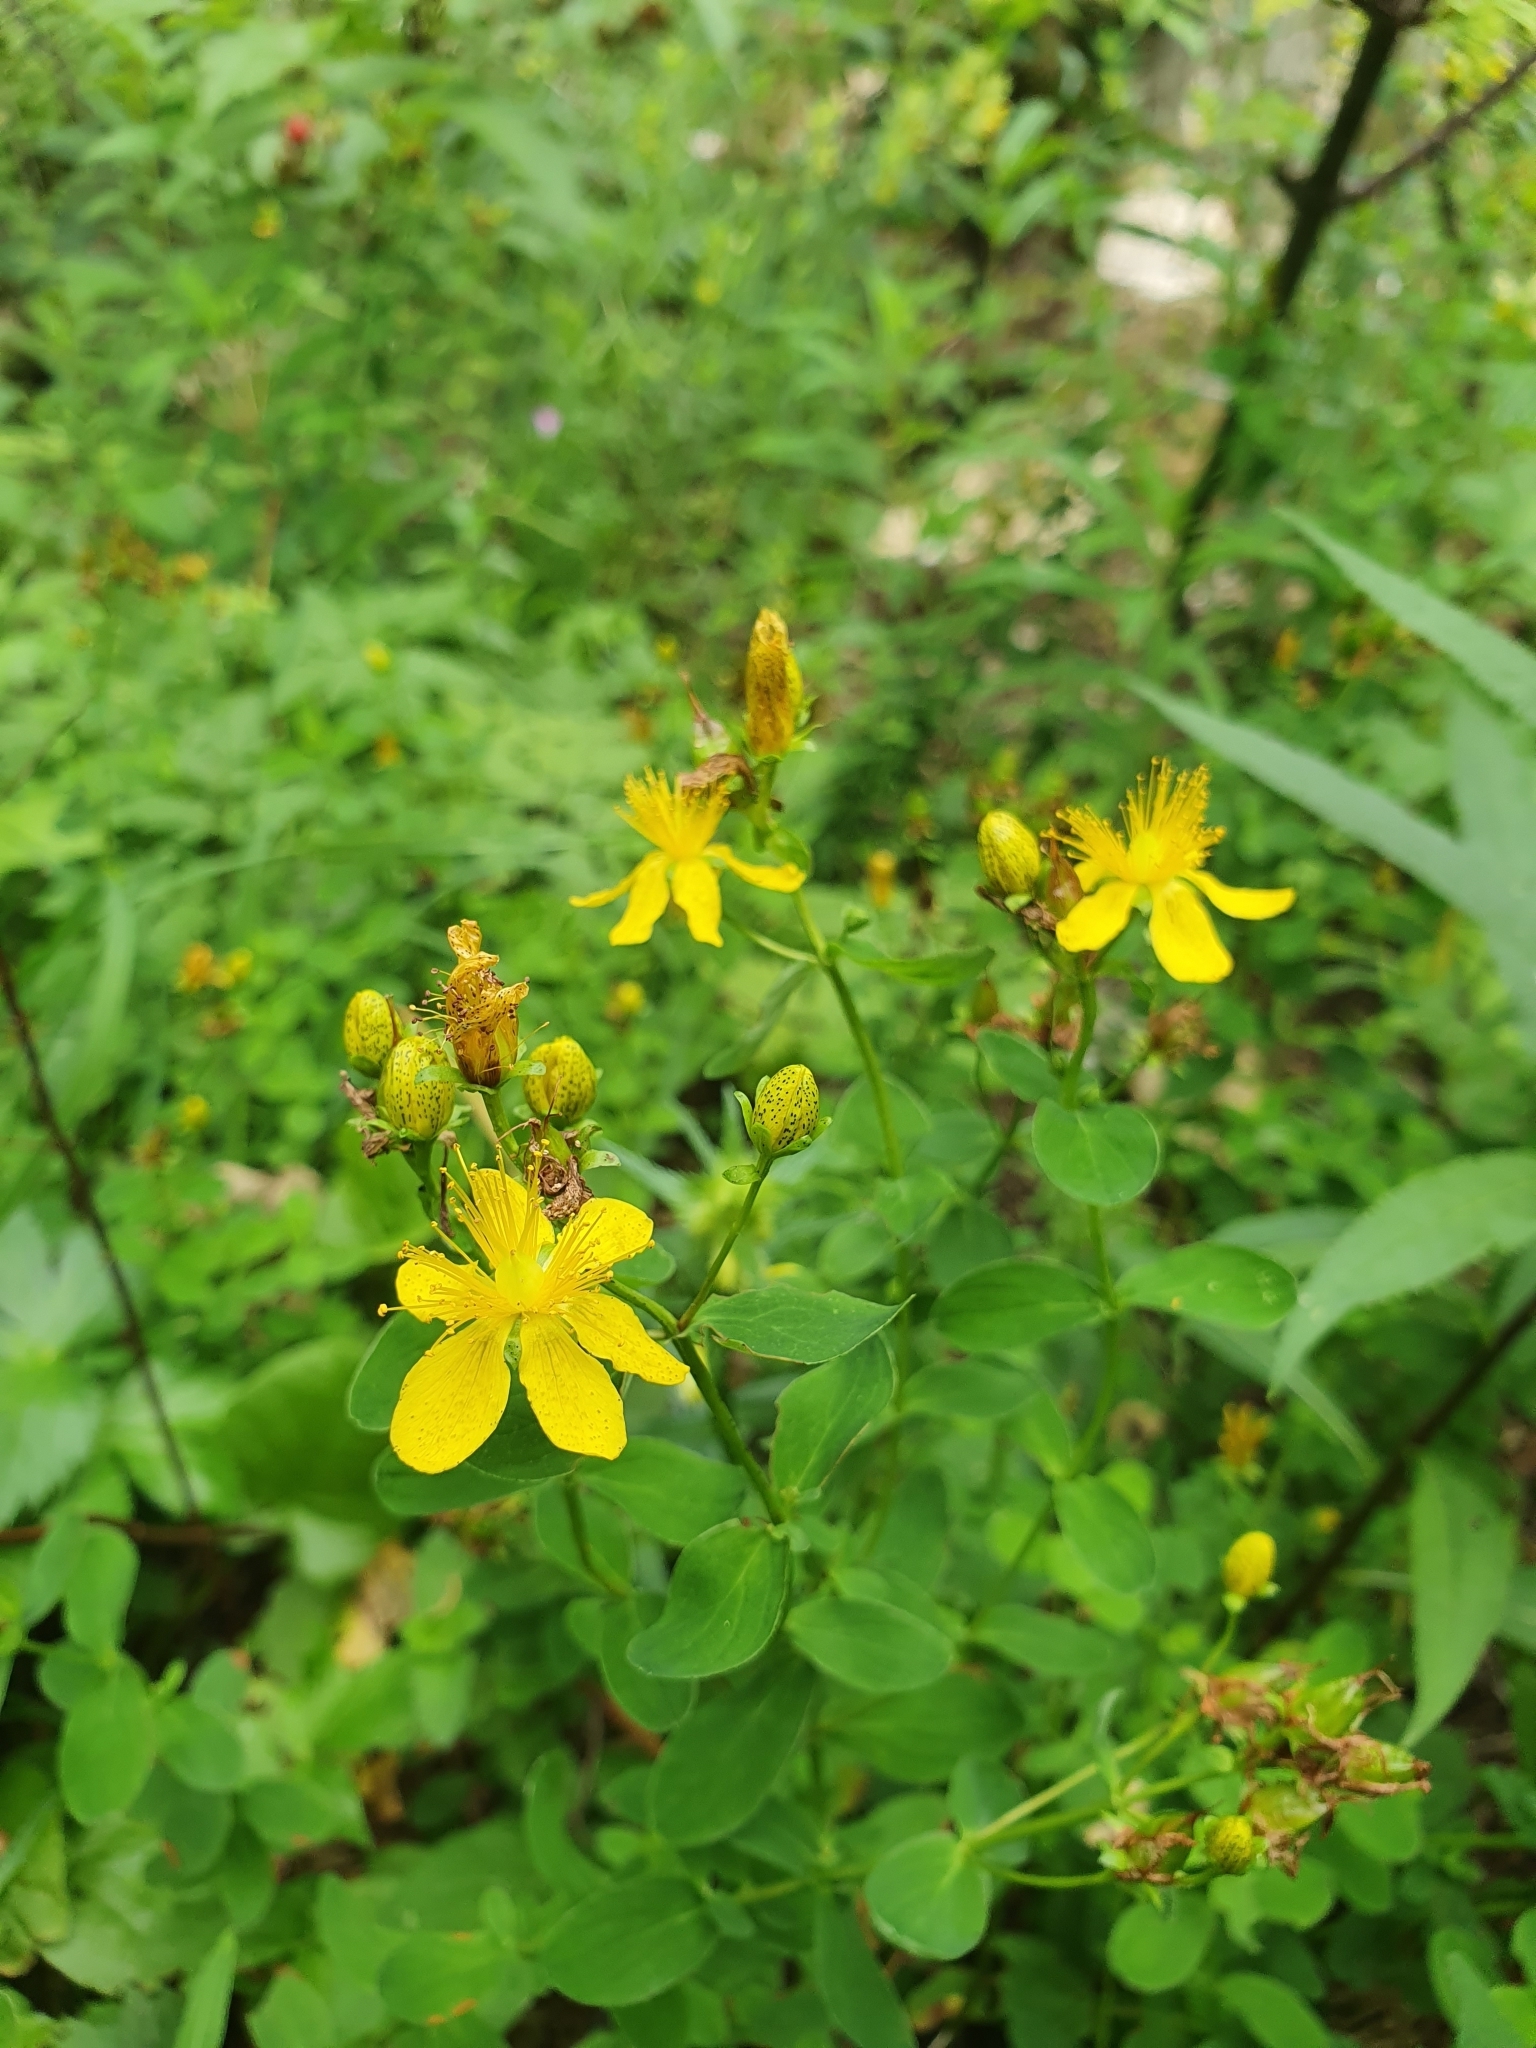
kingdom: Plantae
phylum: Tracheophyta
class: Magnoliopsida
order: Malpighiales
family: Hypericaceae
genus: Hypericum
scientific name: Hypericum maculatum
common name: Imperforate st. john's-wort
